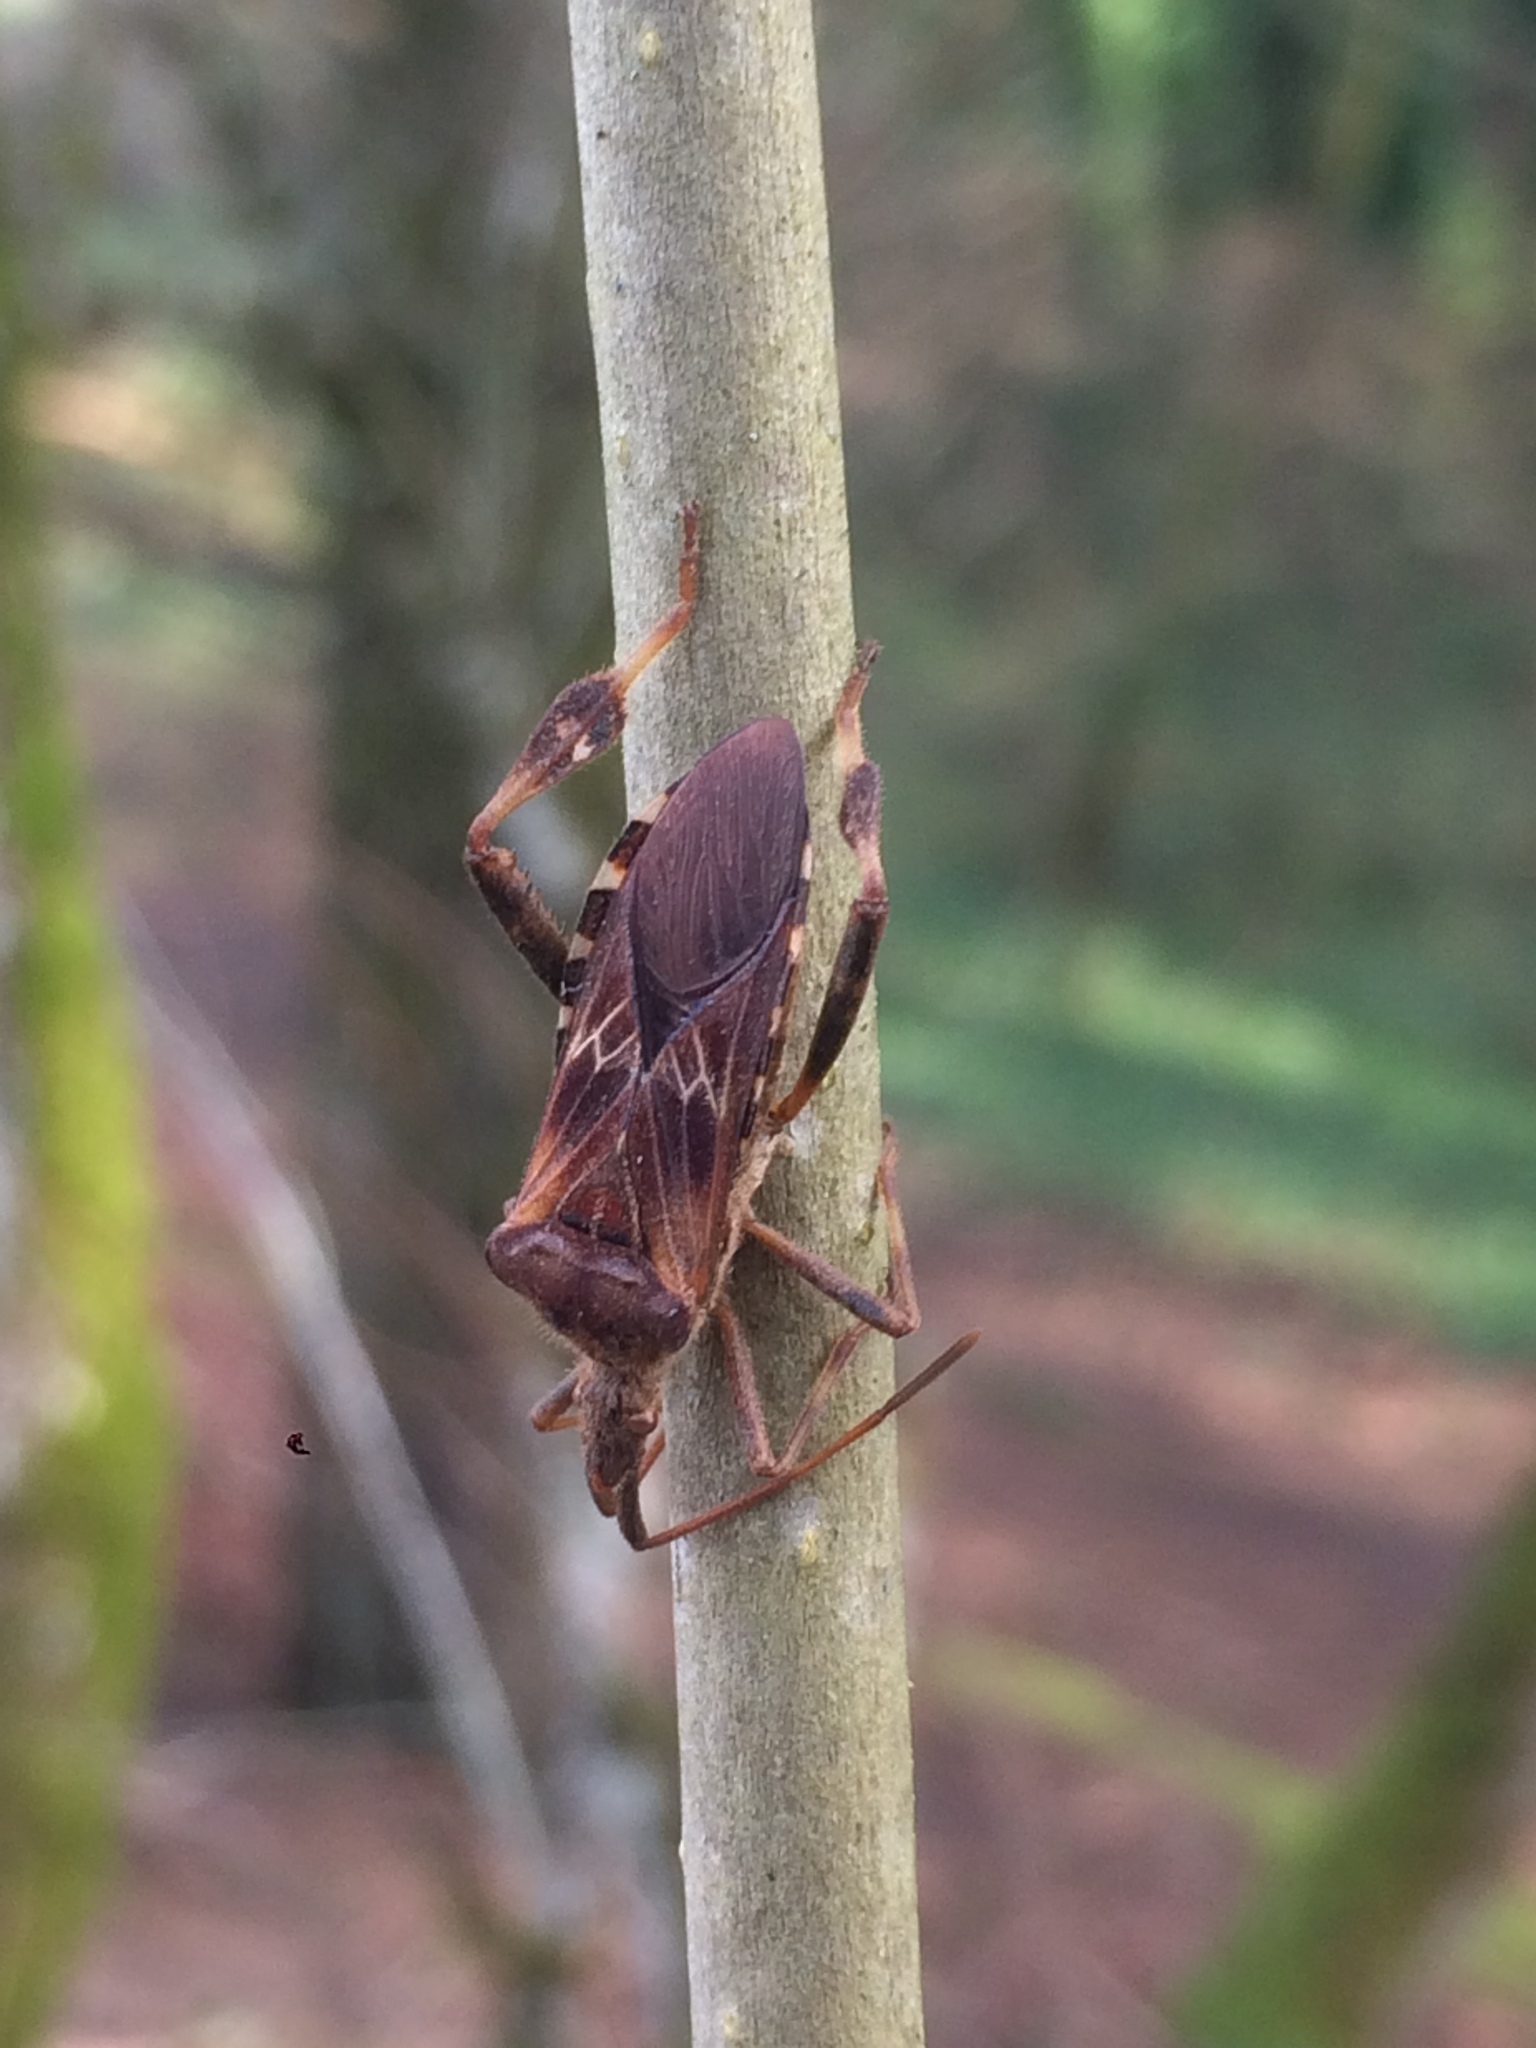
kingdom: Animalia
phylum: Arthropoda
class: Insecta
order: Hemiptera
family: Coreidae
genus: Leptoglossus
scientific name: Leptoglossus occidentalis
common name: Western conifer-seed bug
